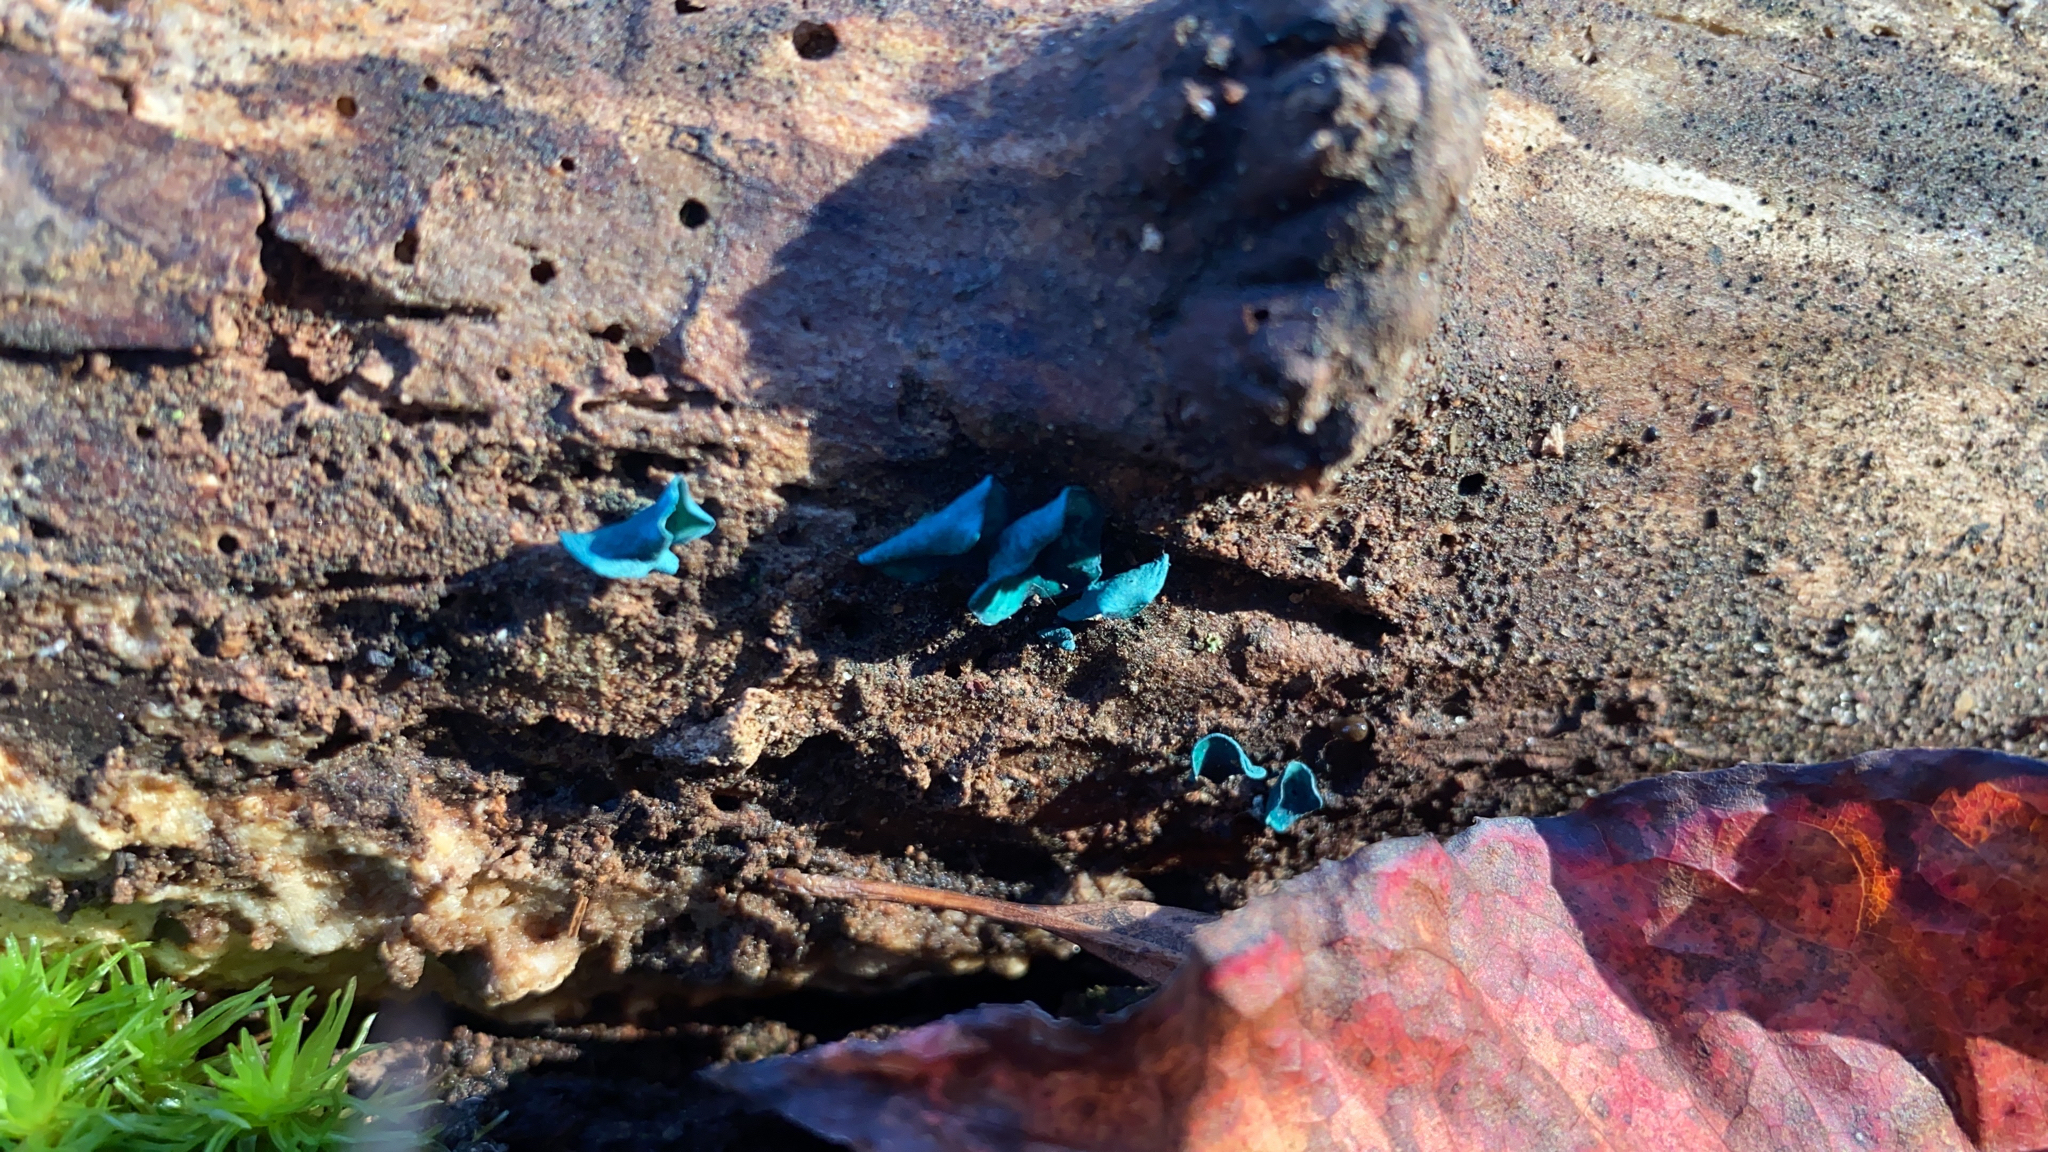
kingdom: Fungi
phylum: Ascomycota
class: Leotiomycetes
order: Helotiales
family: Chlorociboriaceae
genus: Chlorociboria
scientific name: Chlorociboria aeruginascens
